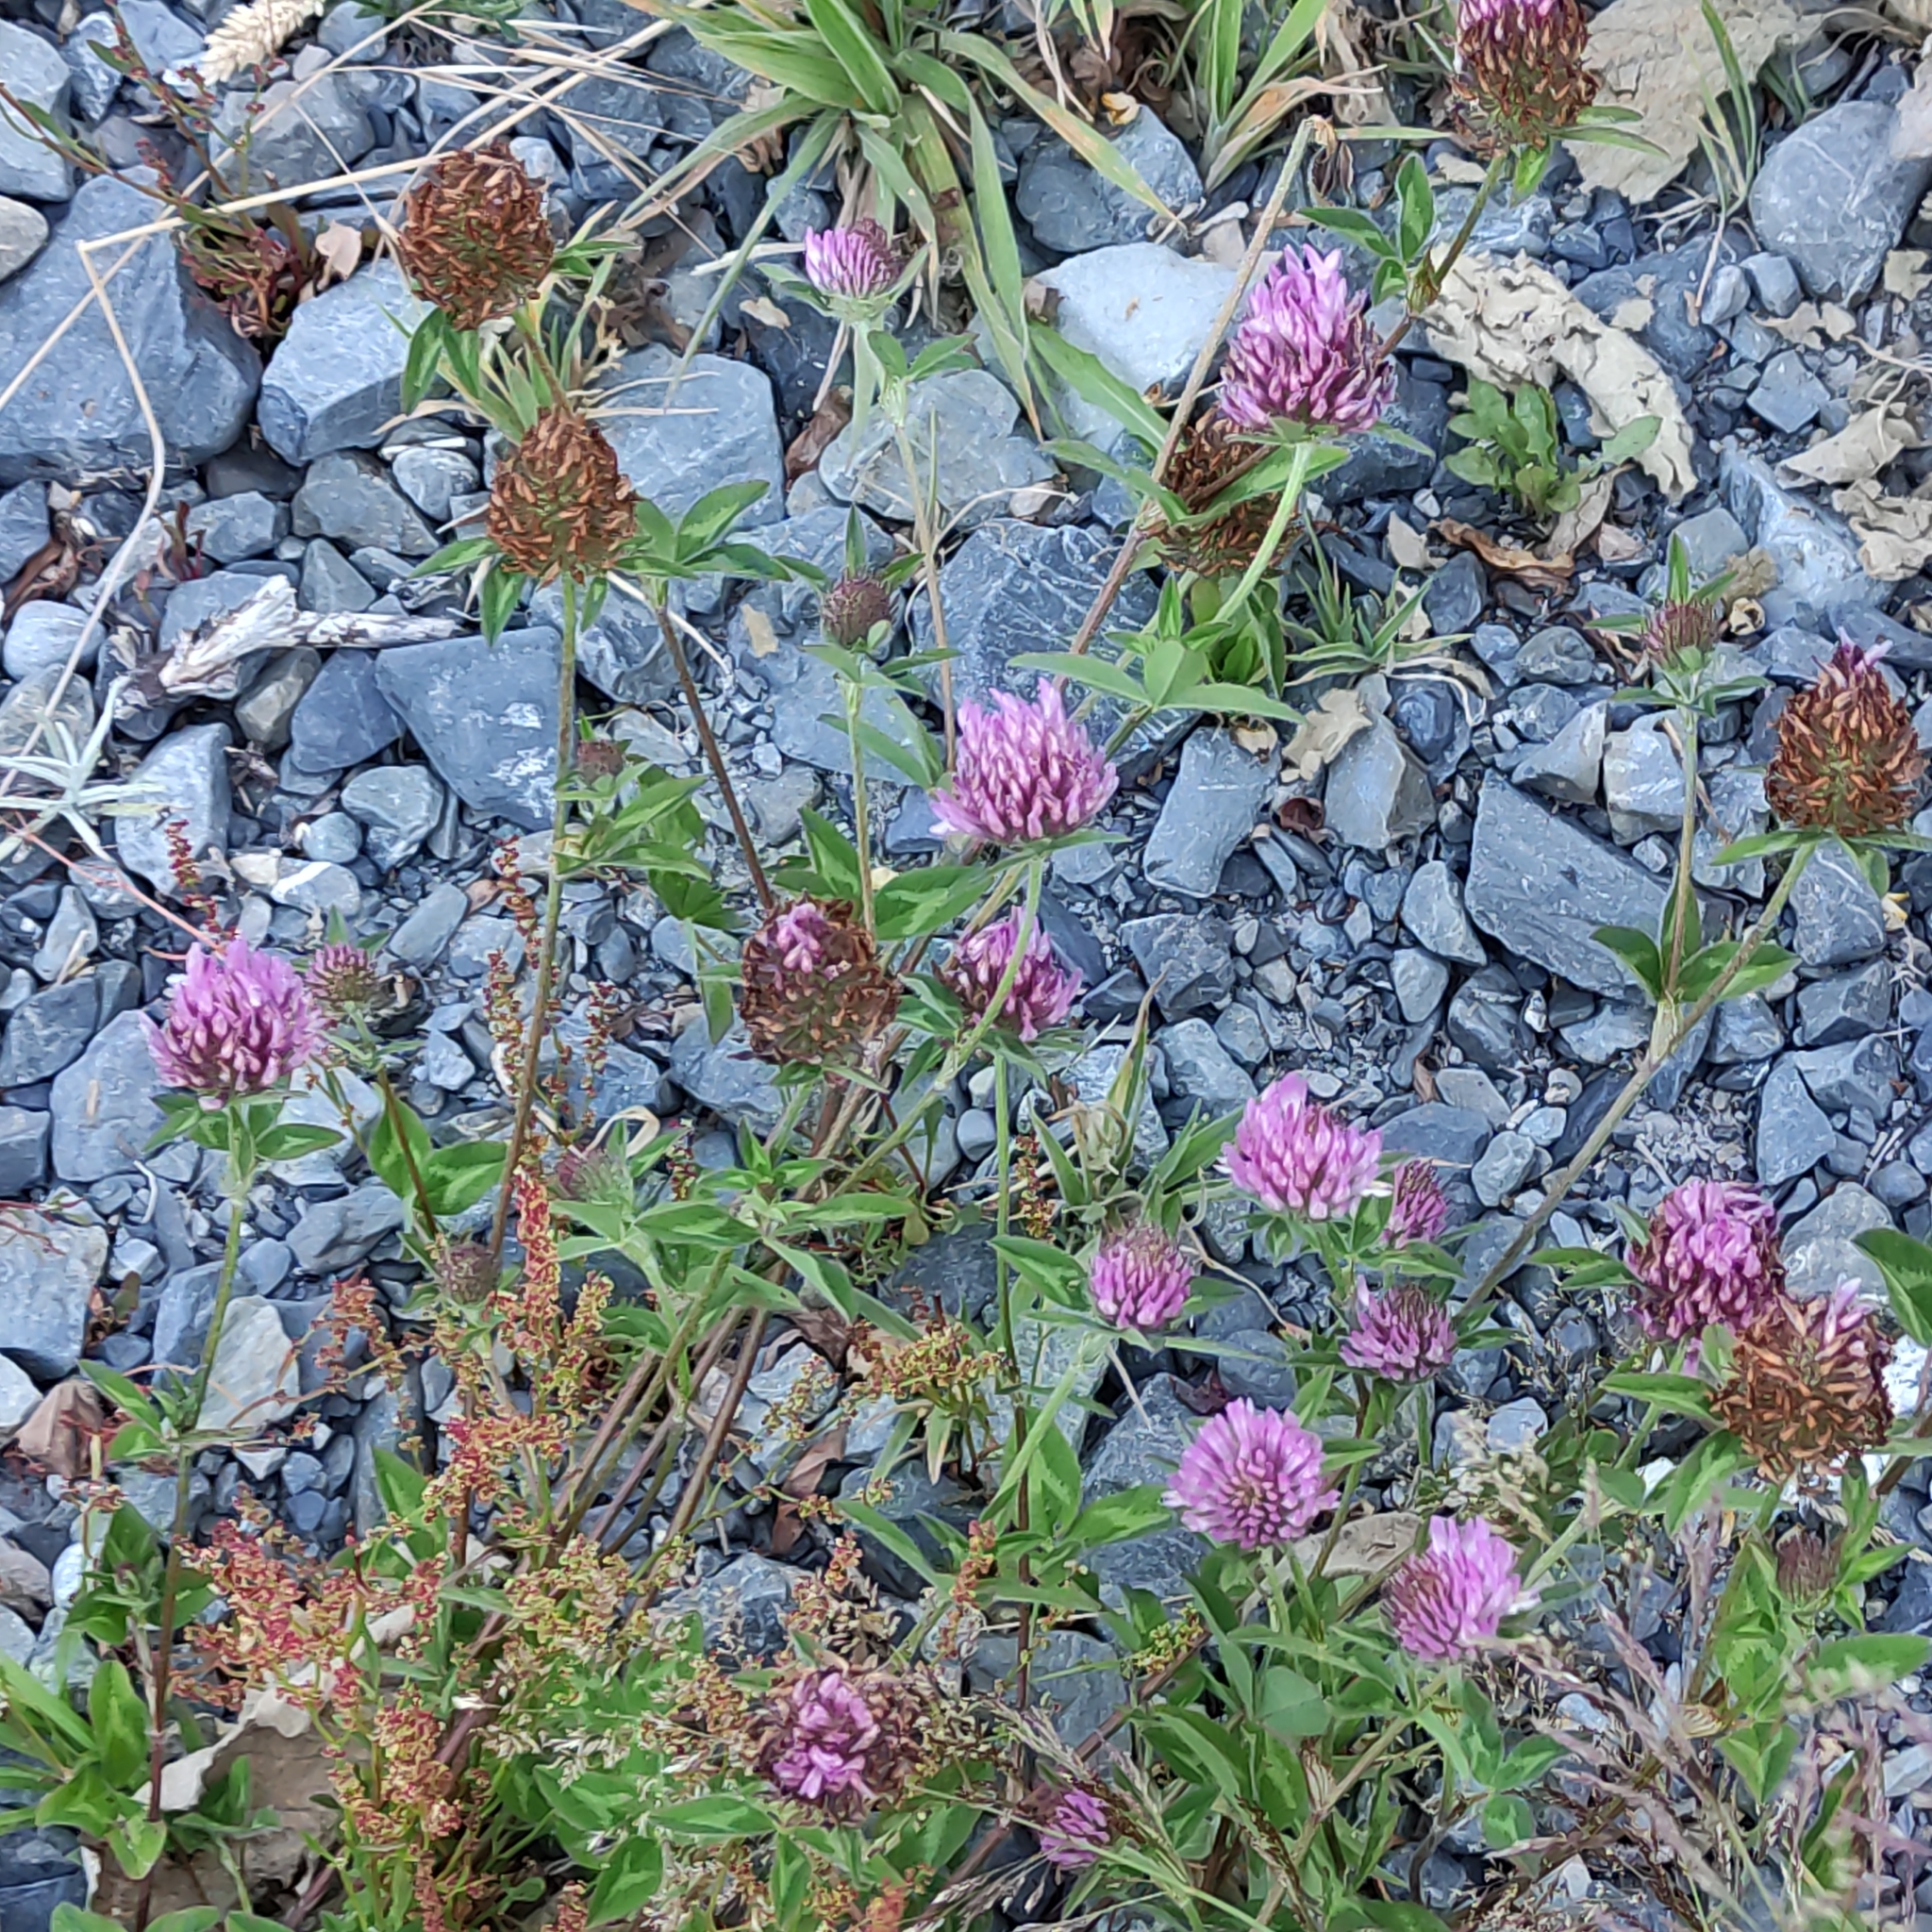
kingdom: Plantae
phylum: Tracheophyta
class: Magnoliopsida
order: Fabales
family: Fabaceae
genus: Trifolium
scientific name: Trifolium pratense
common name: Red clover
